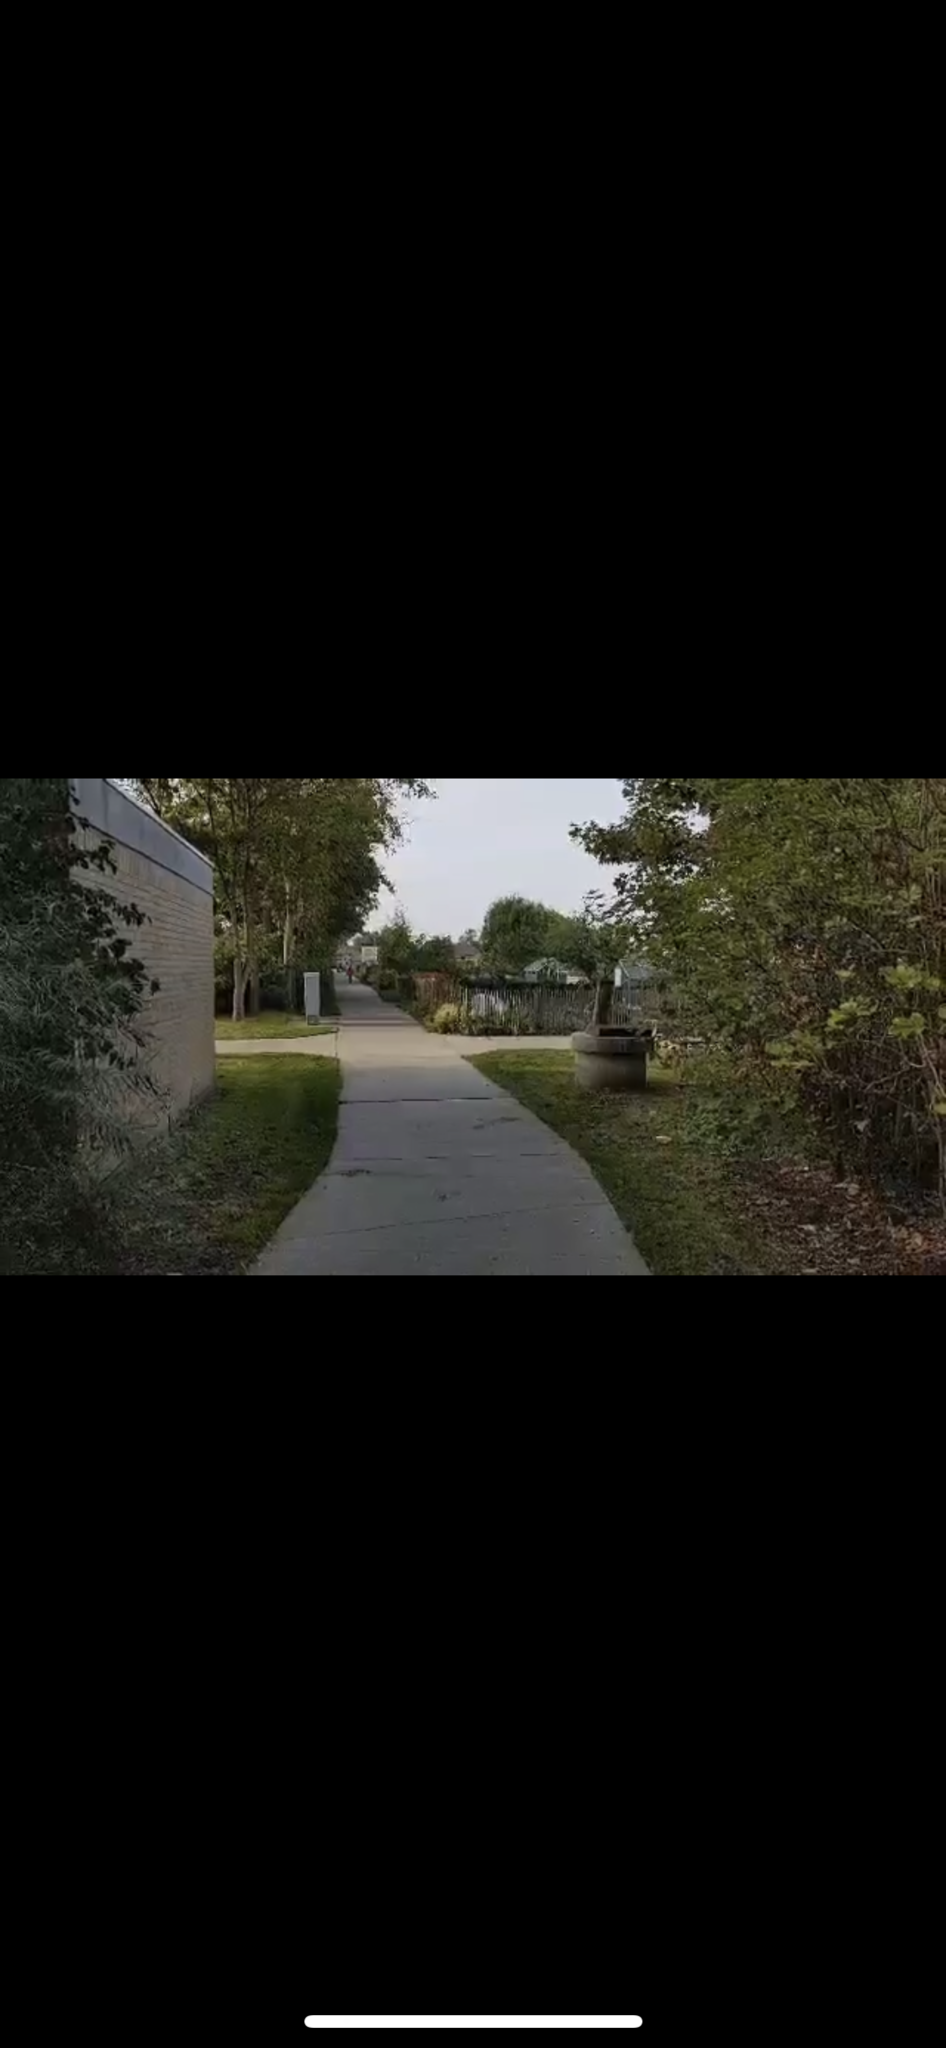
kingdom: Animalia
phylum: Arthropoda
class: Insecta
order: Hymenoptera
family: Vespidae
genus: Vespa
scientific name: Vespa velutina
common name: Asian hornet
